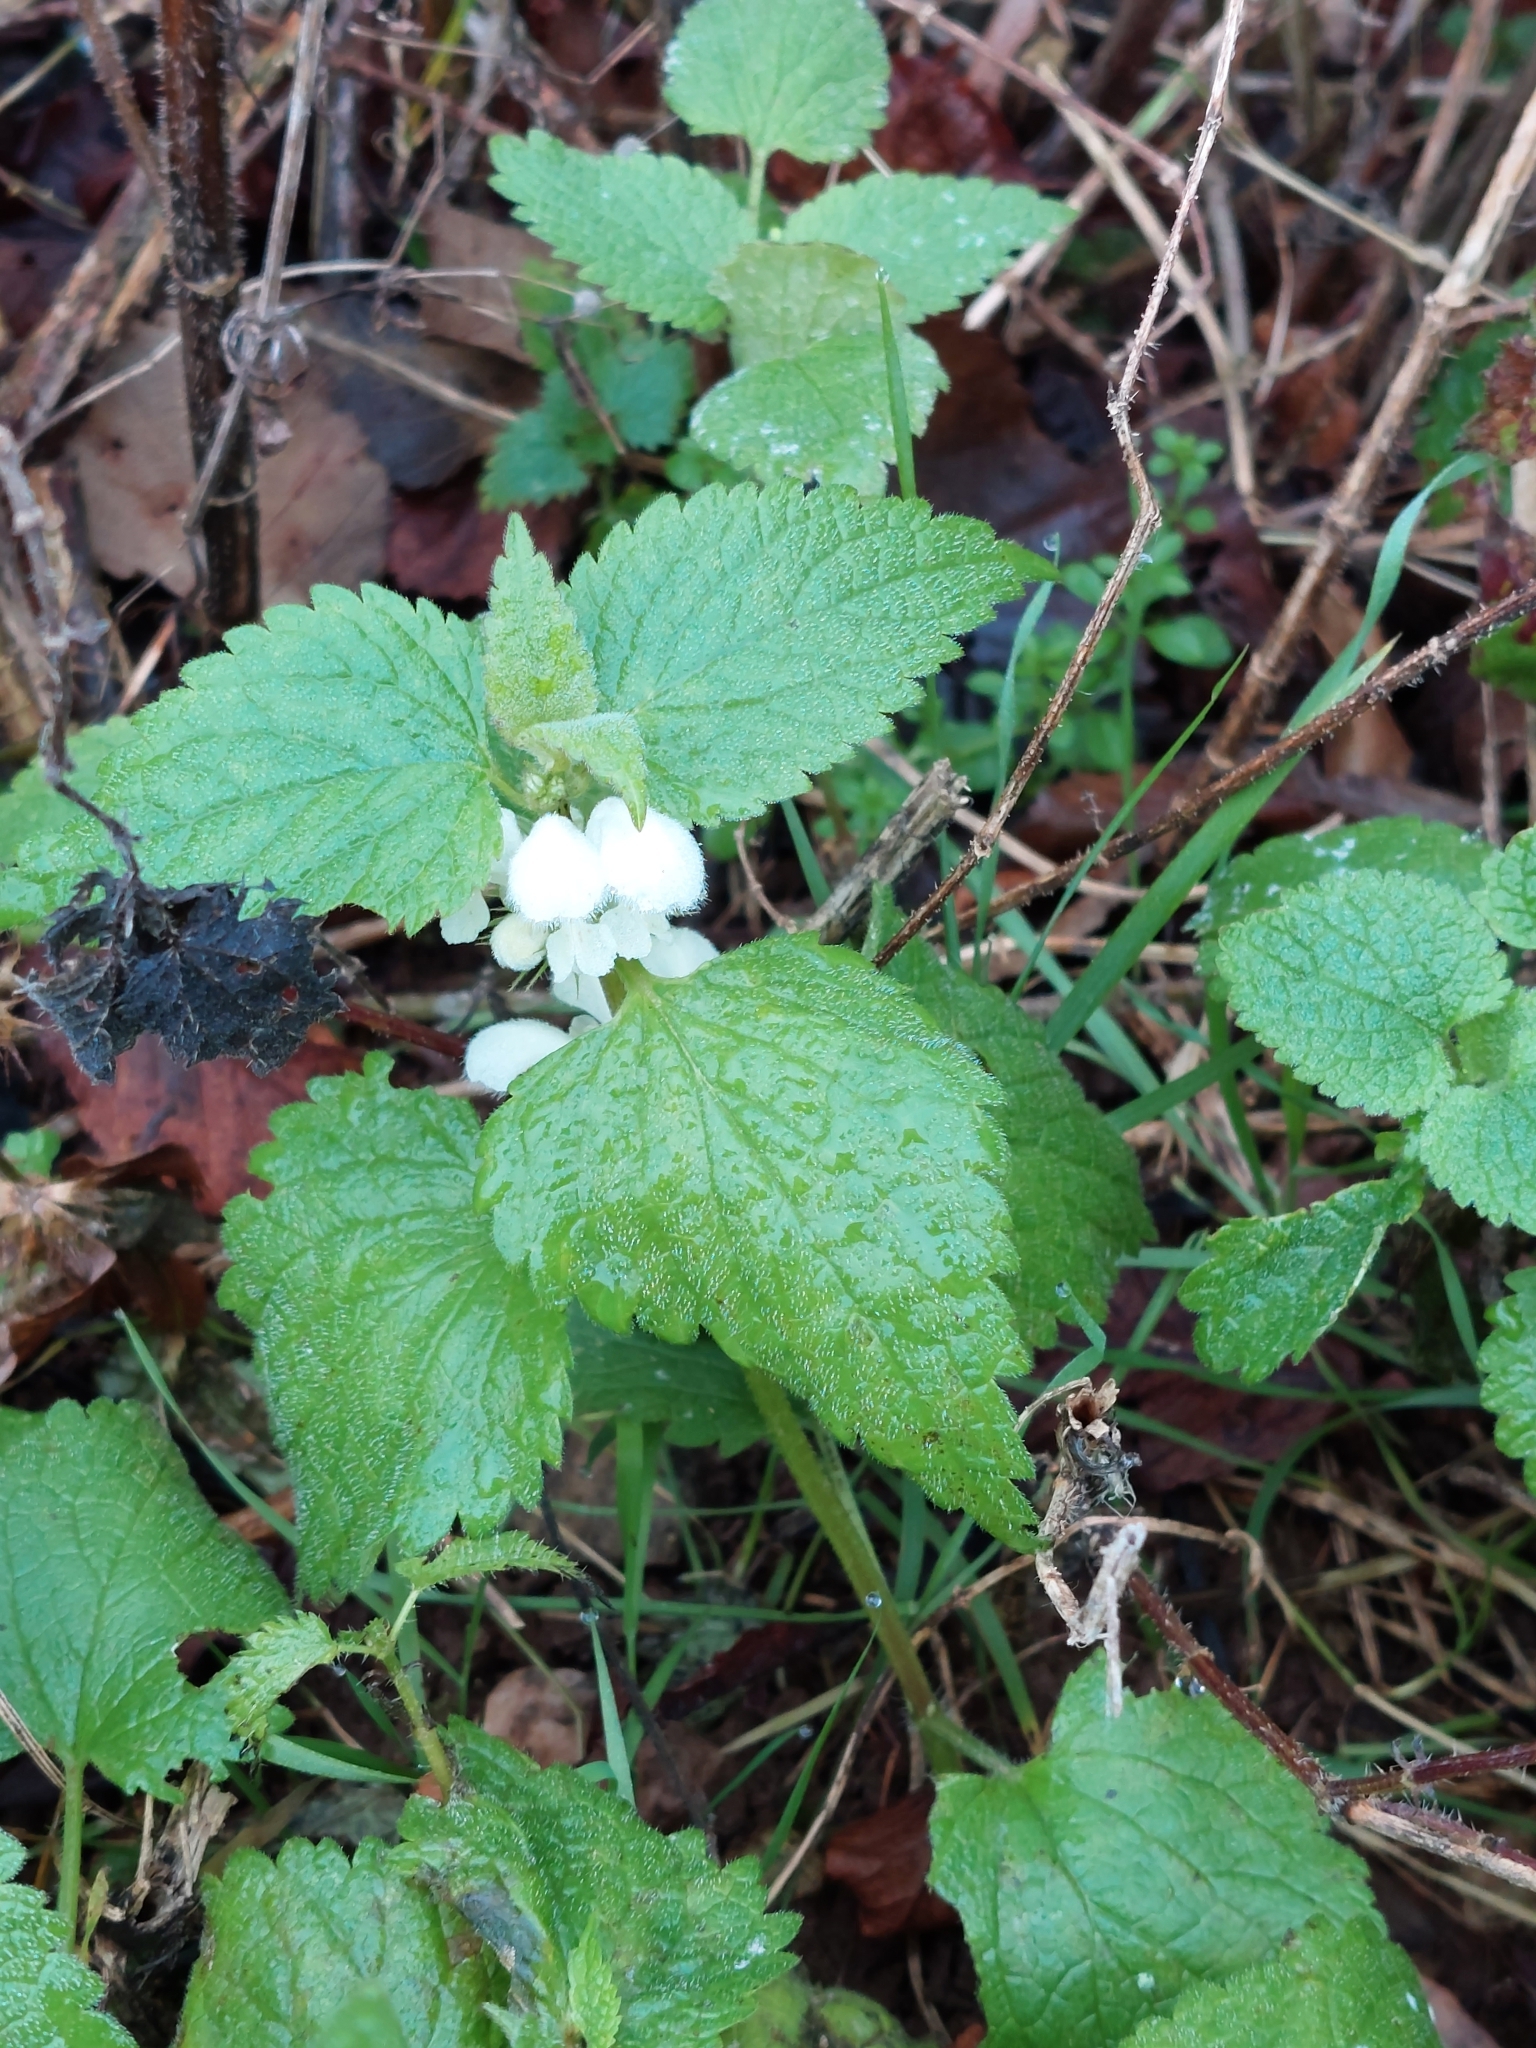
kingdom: Plantae
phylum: Tracheophyta
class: Magnoliopsida
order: Lamiales
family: Lamiaceae
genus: Lamium
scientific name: Lamium album
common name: White dead-nettle
